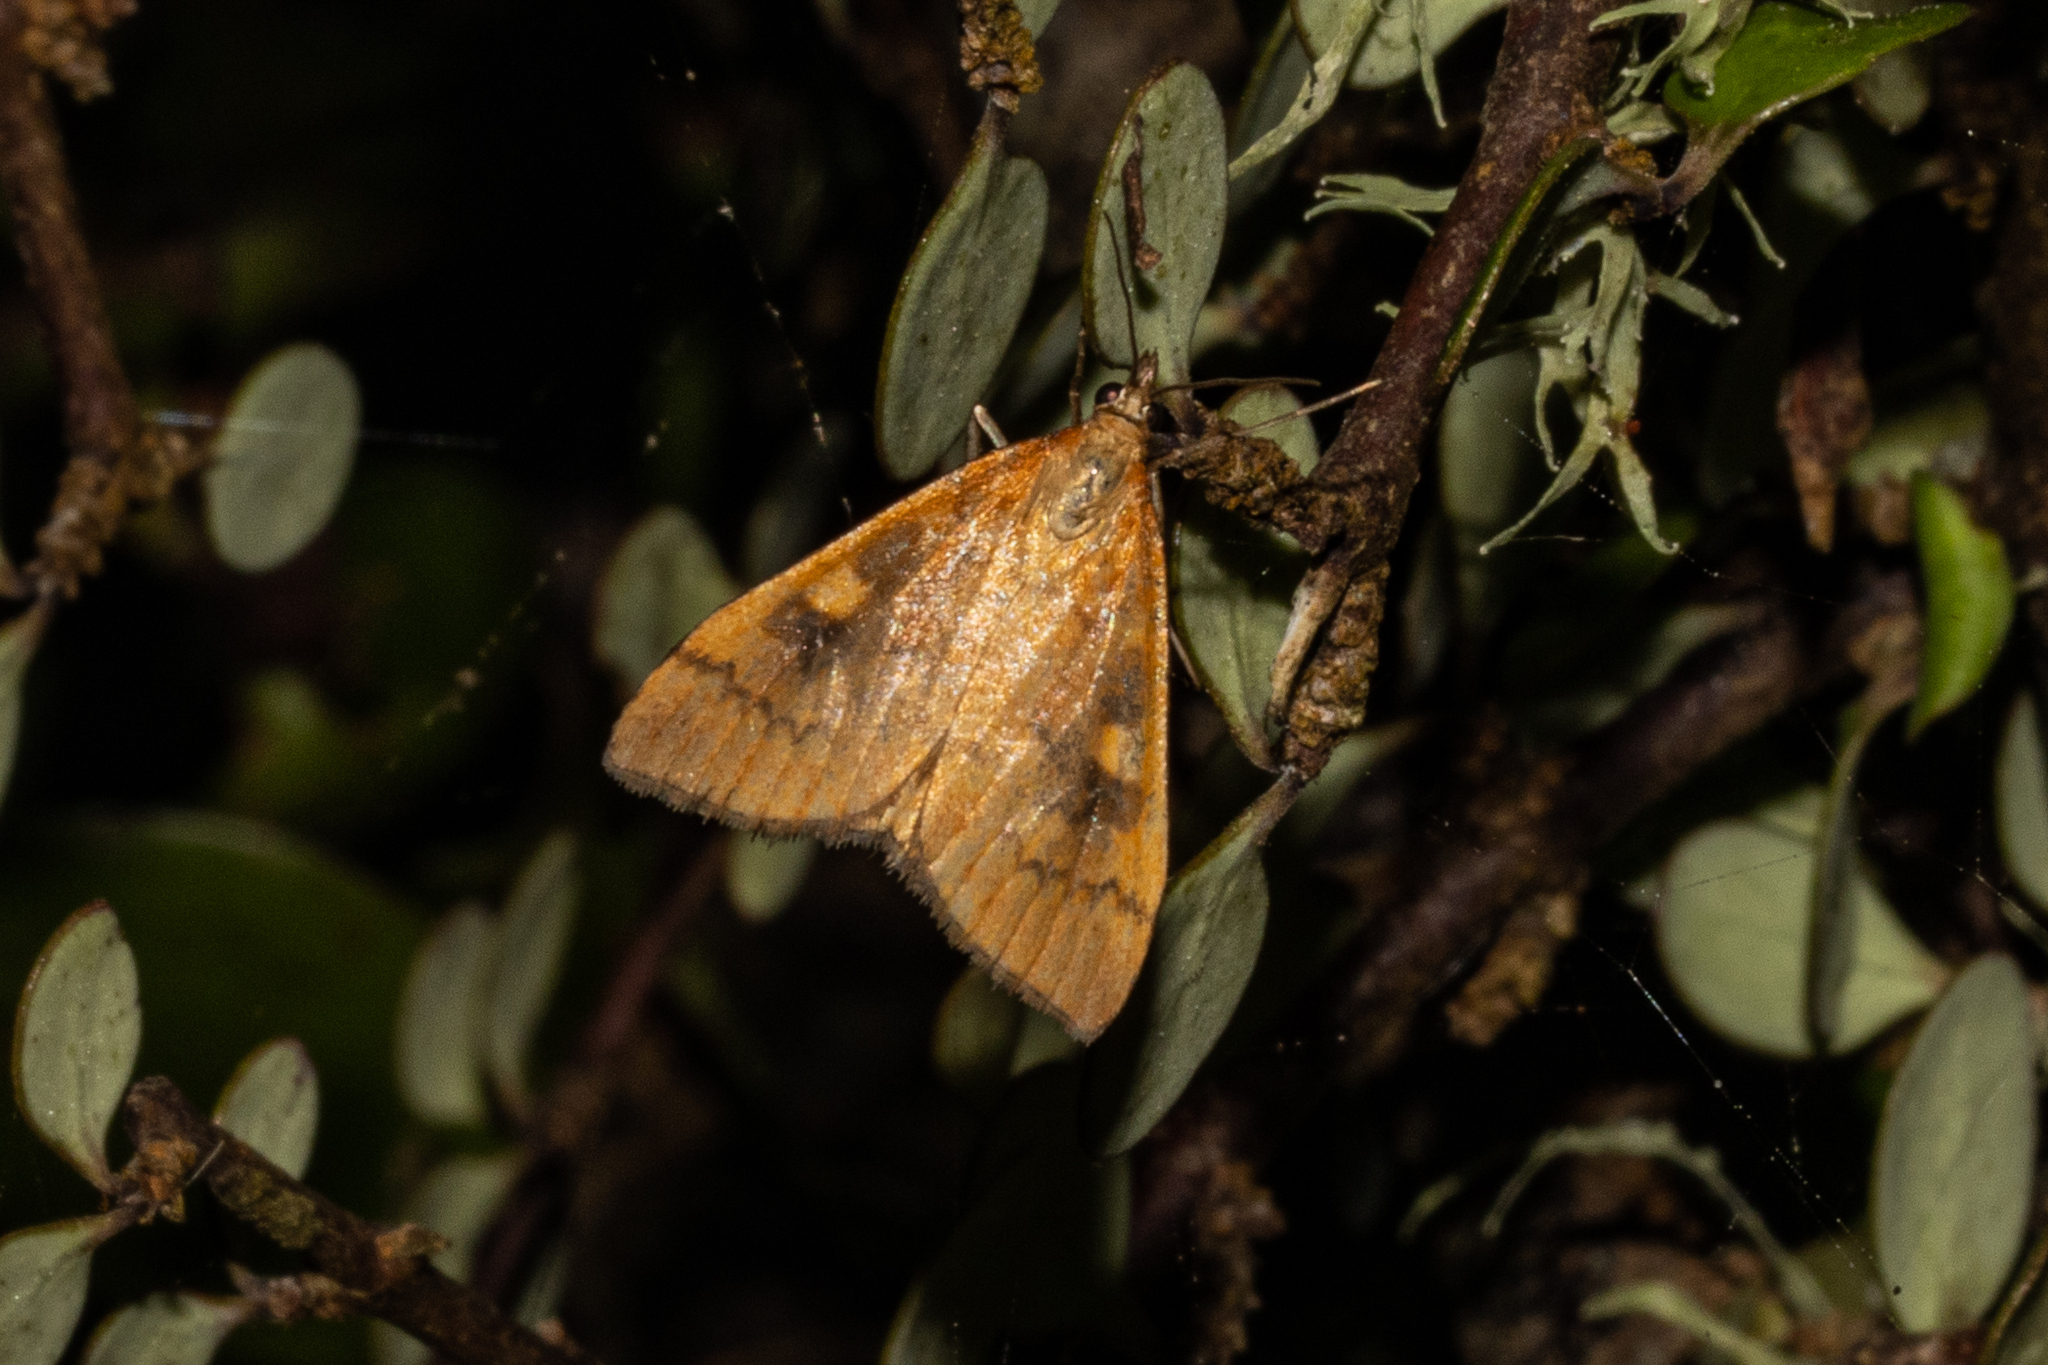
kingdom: Animalia
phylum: Arthropoda
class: Insecta
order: Lepidoptera
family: Crambidae
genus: Udea
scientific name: Udea Mnesictena flavidalis
